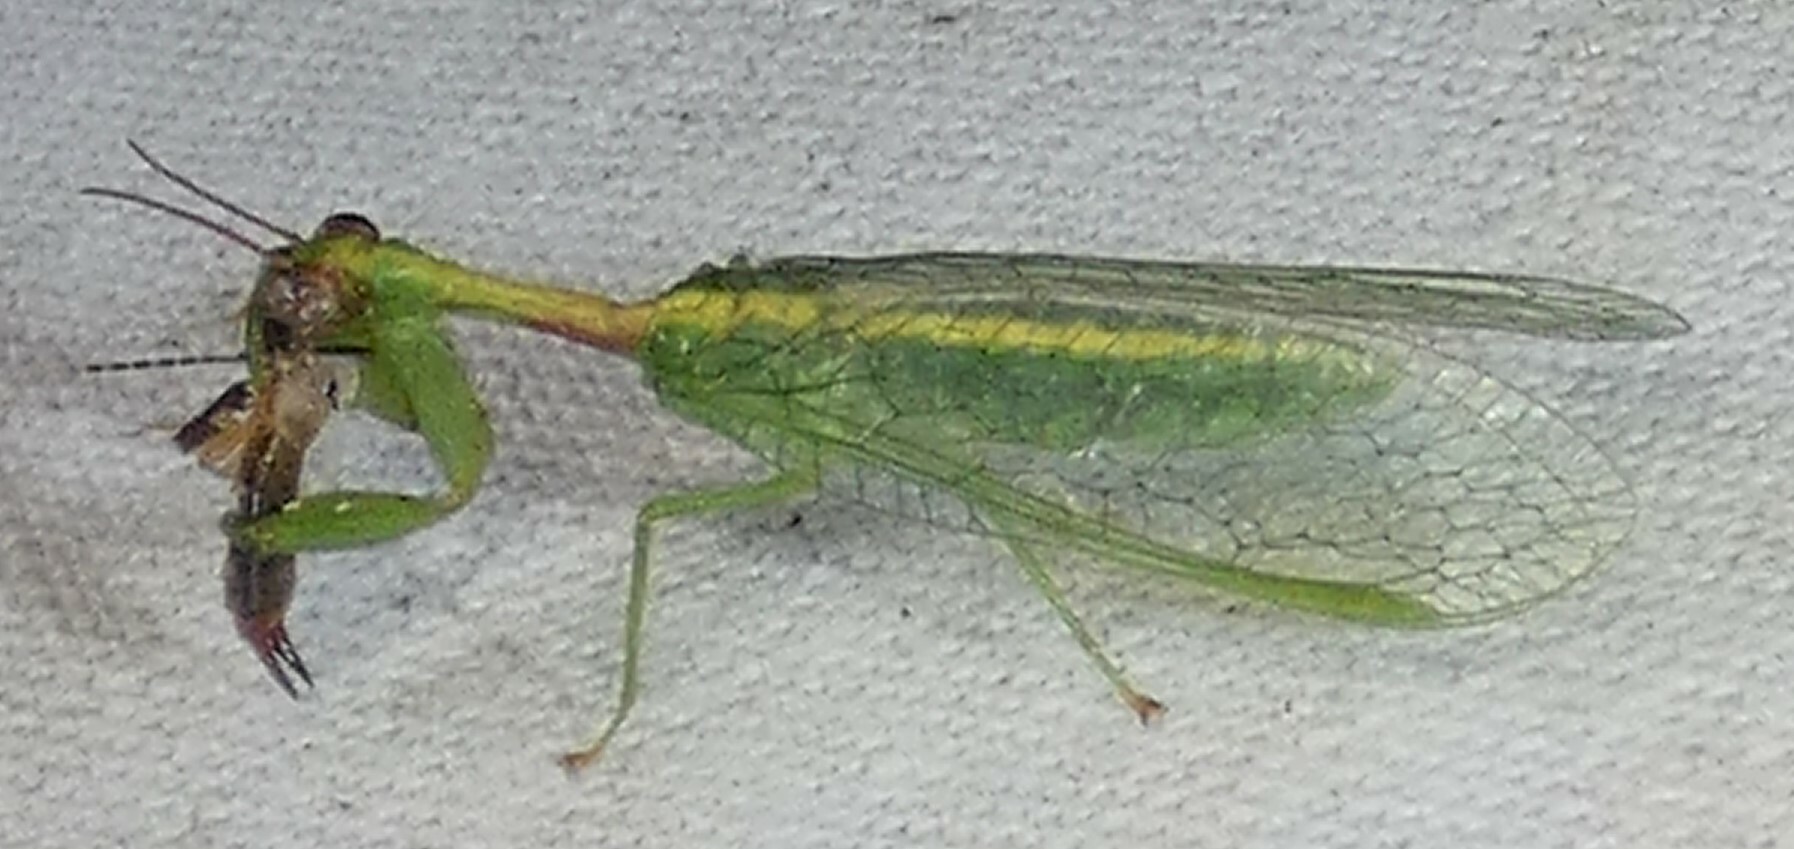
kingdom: Animalia
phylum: Arthropoda
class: Insecta
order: Neuroptera
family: Mantispidae
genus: Zeugomantispa
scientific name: Zeugomantispa minuta
